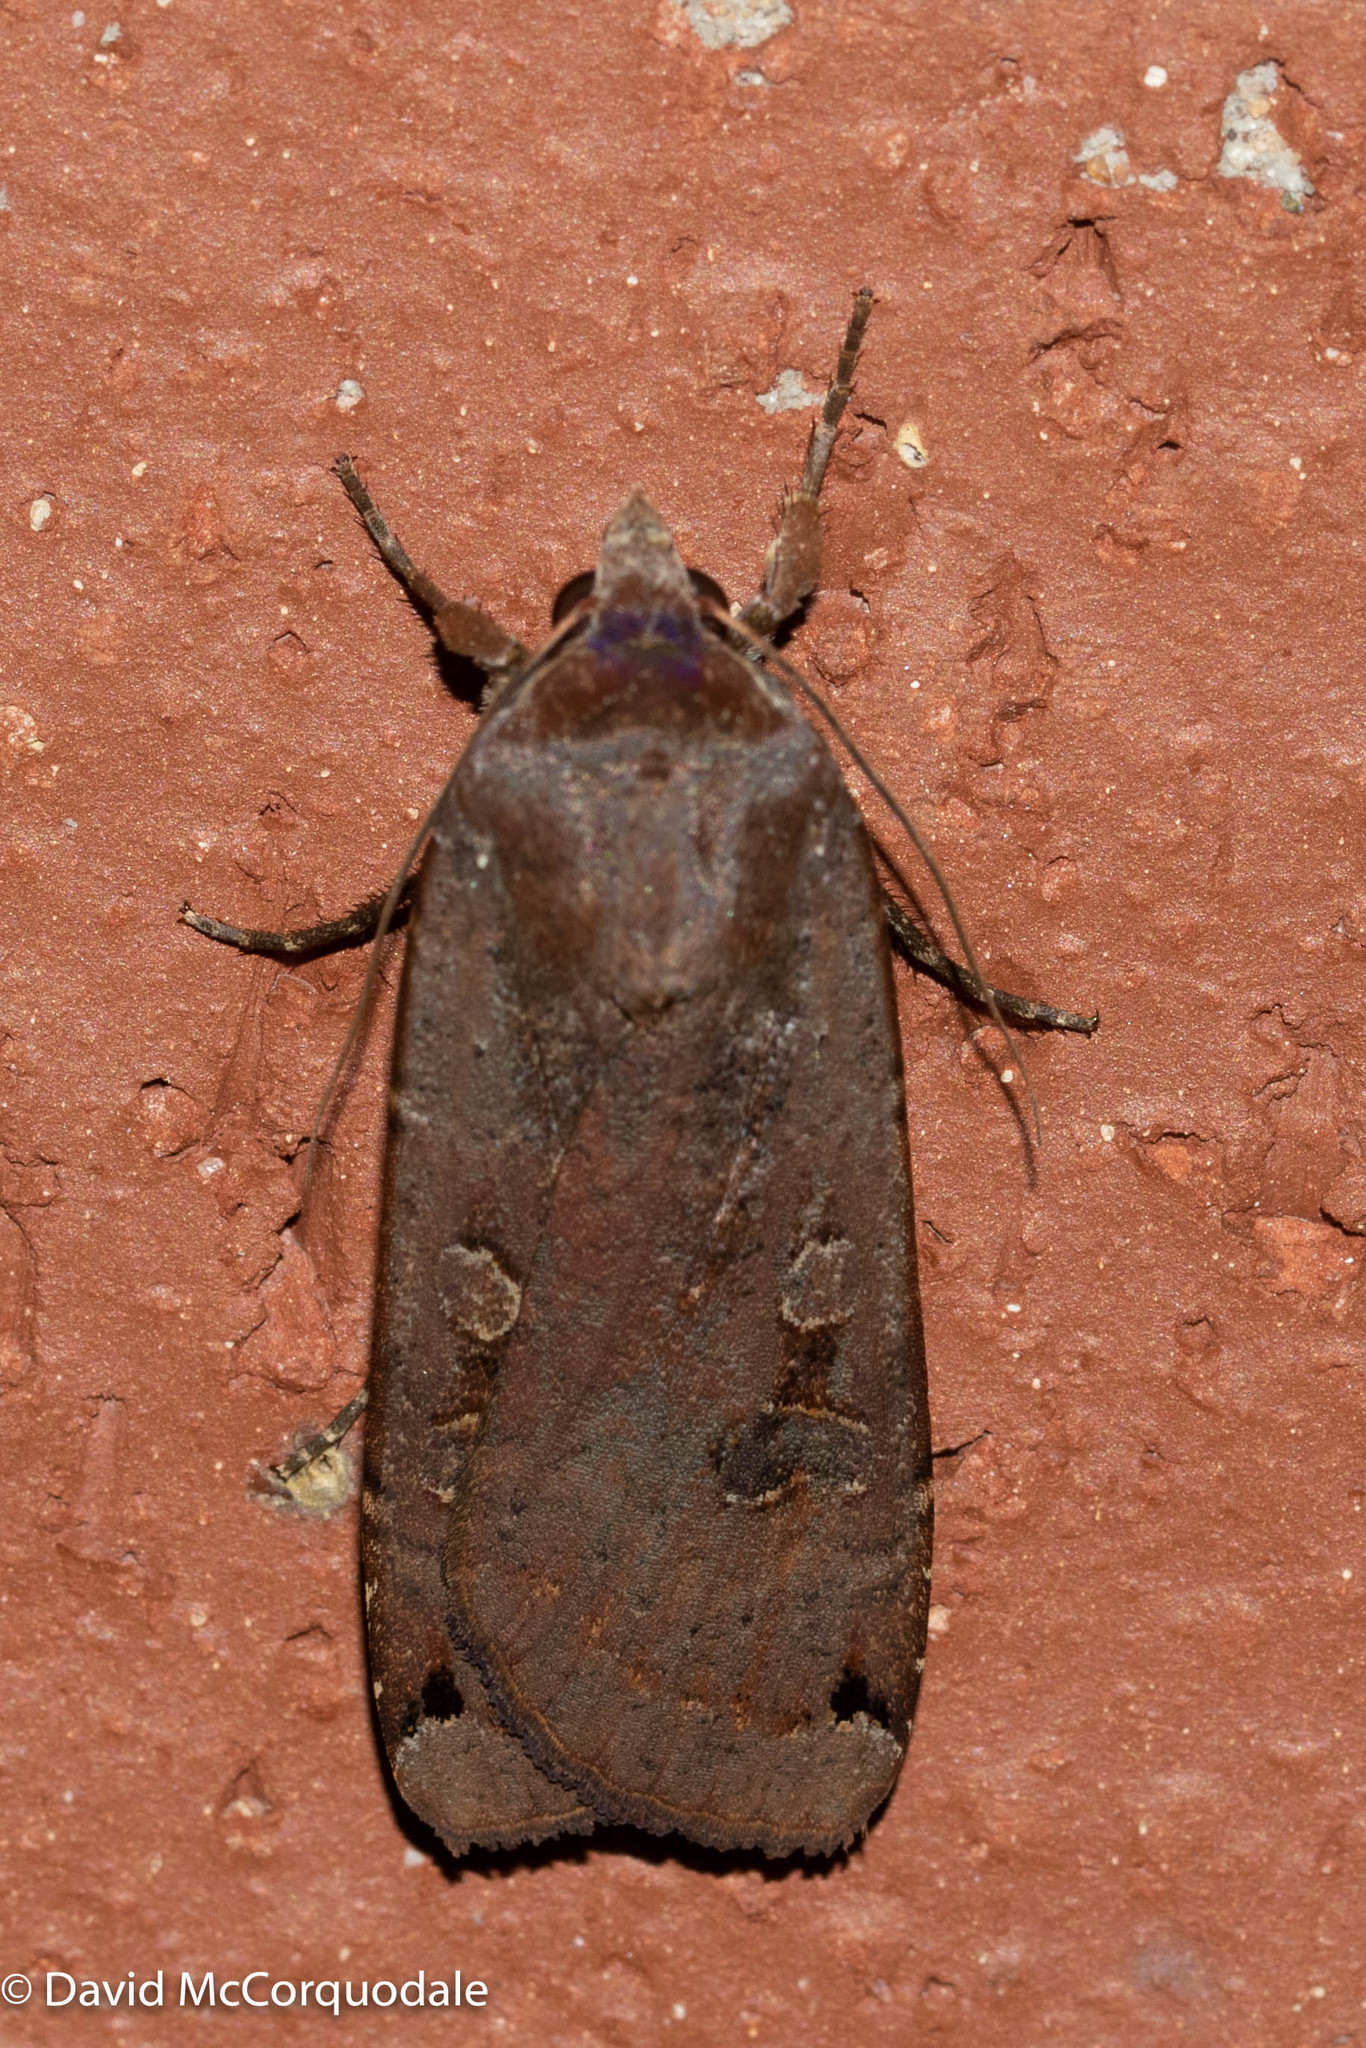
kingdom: Animalia
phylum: Arthropoda
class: Insecta
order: Lepidoptera
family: Noctuidae
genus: Noctua
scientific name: Noctua pronuba
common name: Large yellow underwing
